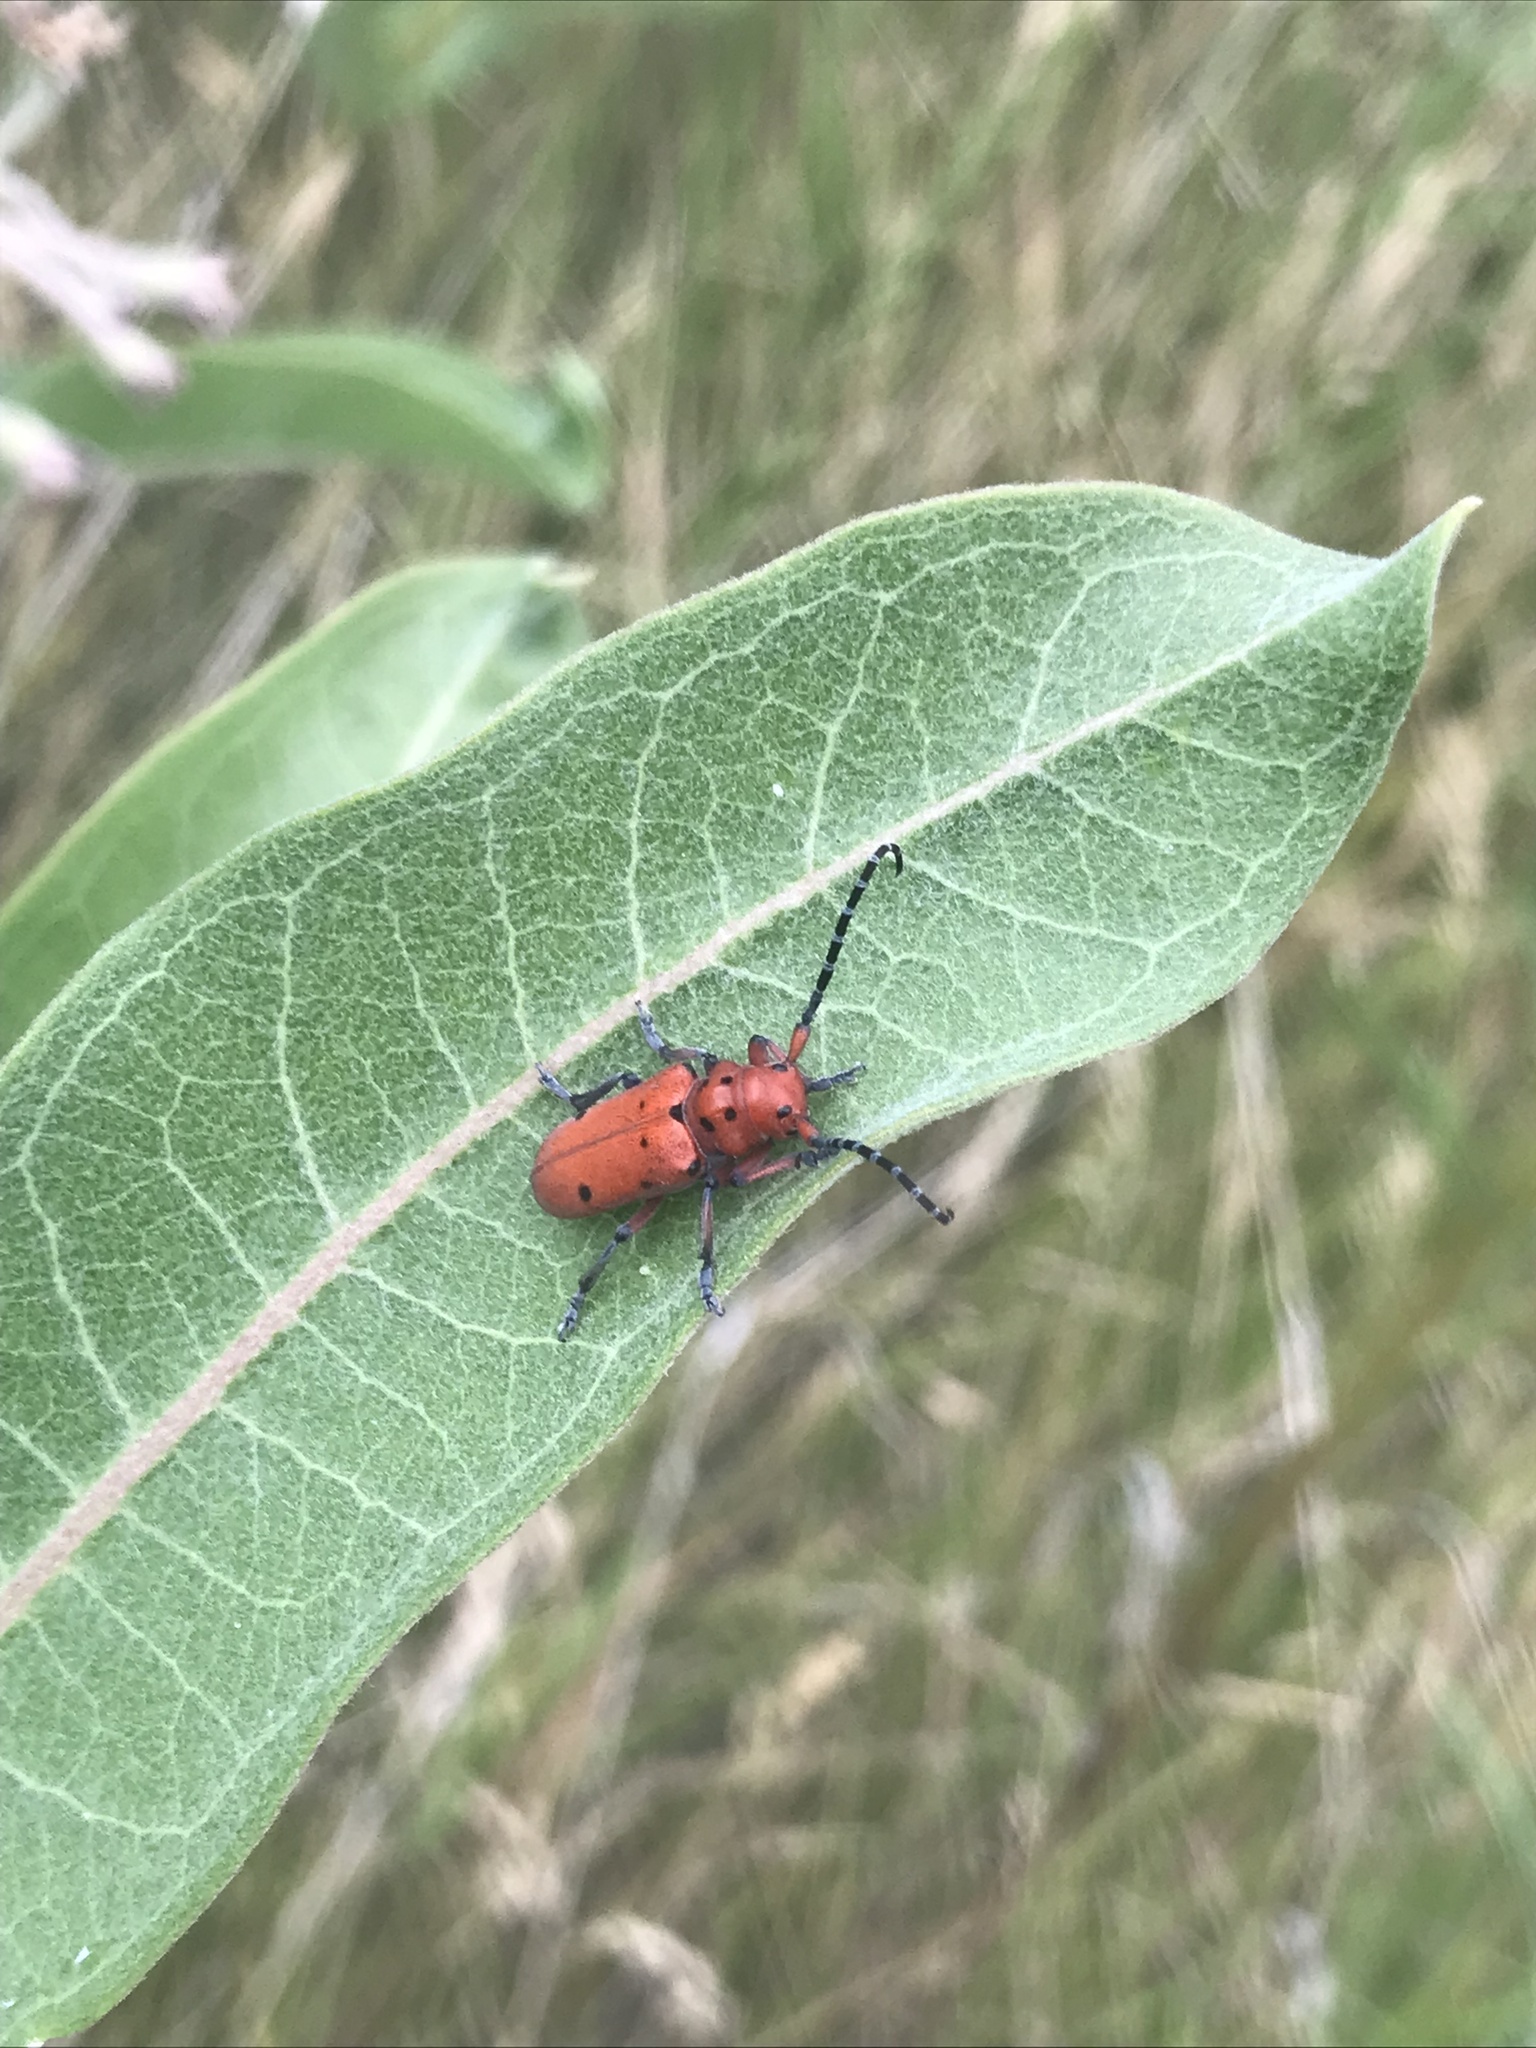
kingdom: Animalia
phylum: Arthropoda
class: Insecta
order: Coleoptera
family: Cerambycidae
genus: Tetraopes
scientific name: Tetraopes femoratus
